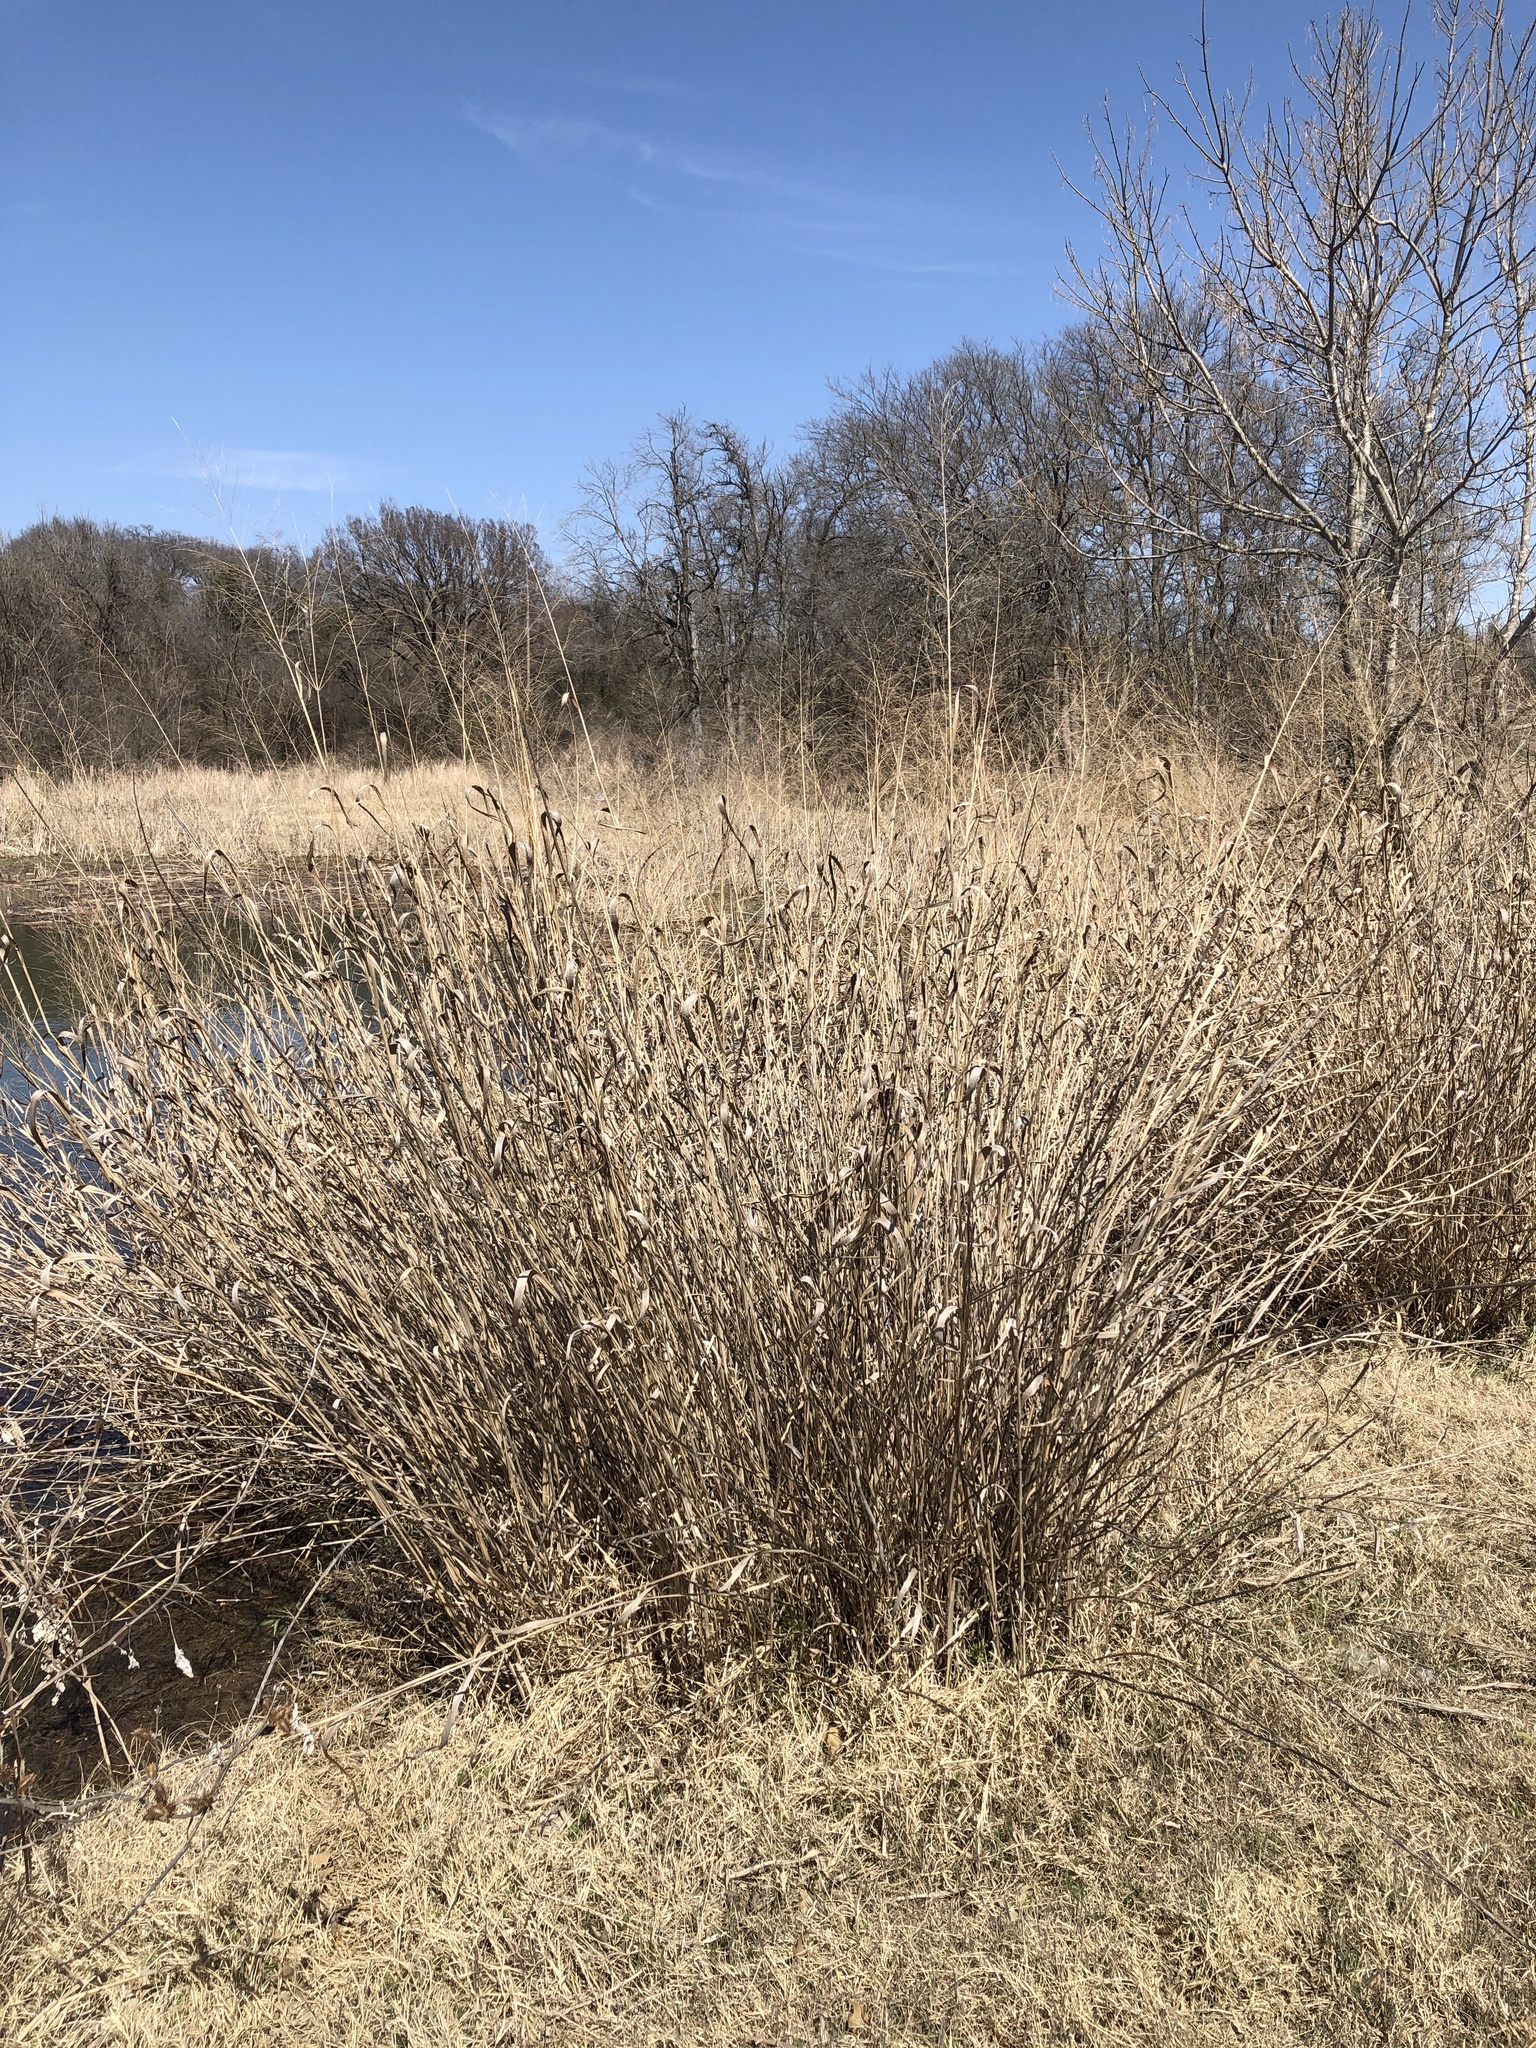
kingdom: Plantae
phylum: Tracheophyta
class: Liliopsida
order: Poales
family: Poaceae
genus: Panicum
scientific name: Panicum virgatum
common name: Switchgrass
